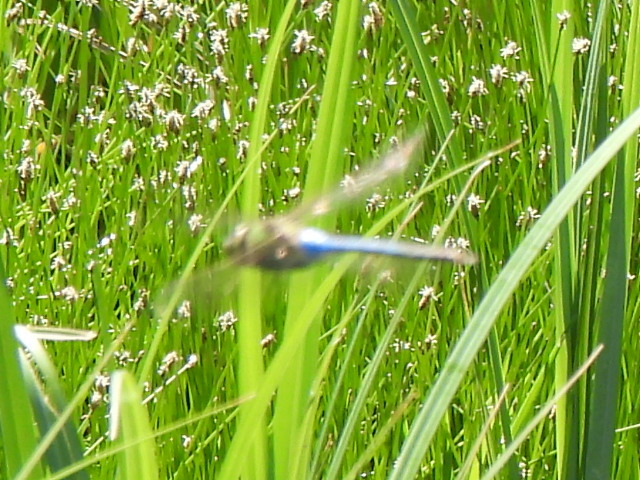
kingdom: Animalia
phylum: Arthropoda
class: Insecta
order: Odonata
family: Aeshnidae
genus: Anax
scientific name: Anax junius
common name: Common green darner
